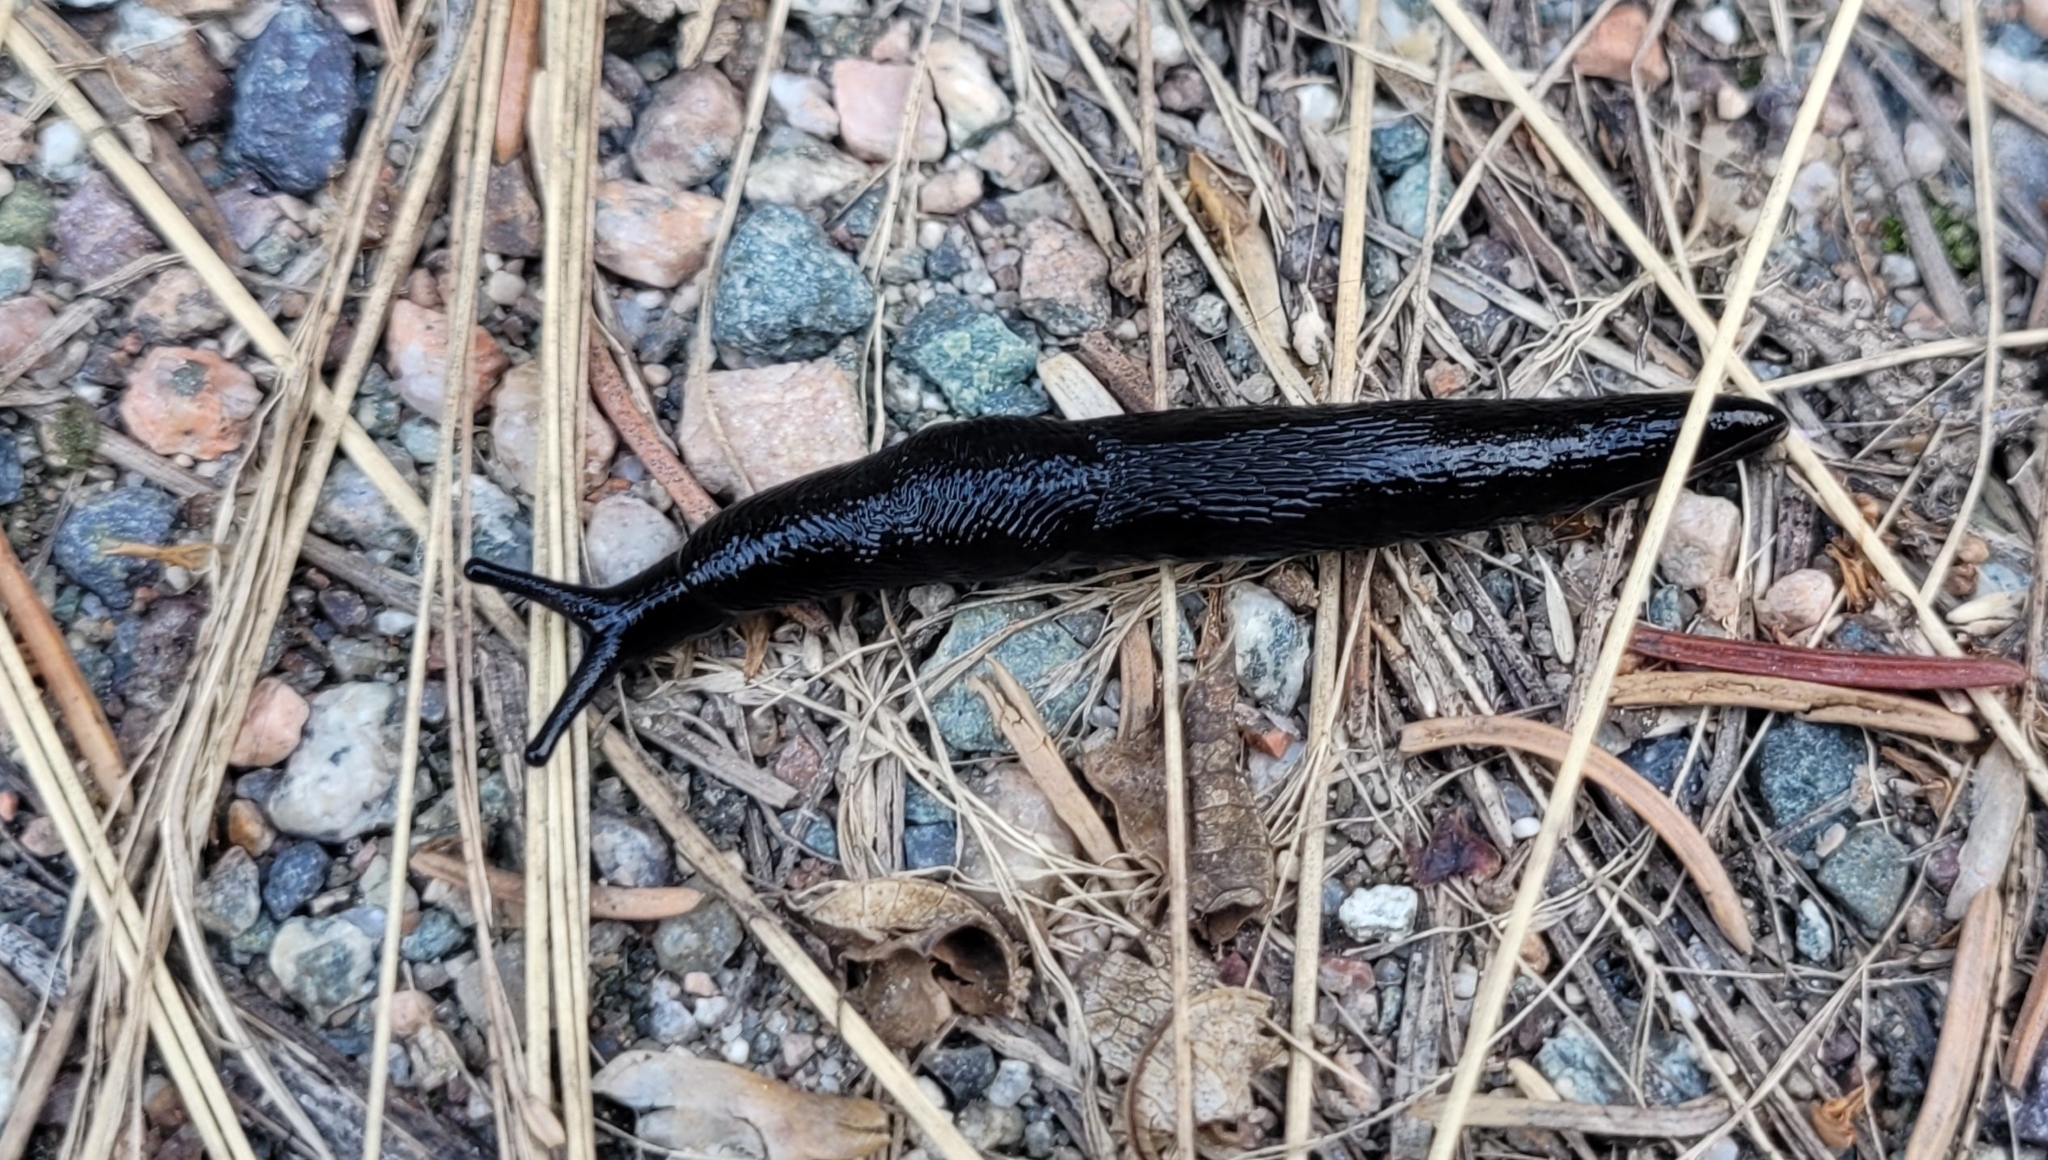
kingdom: Animalia
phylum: Mollusca
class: Gastropoda
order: Stylommatophora
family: Limacidae
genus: Turcomilax
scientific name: Turcomilax turkestanus
